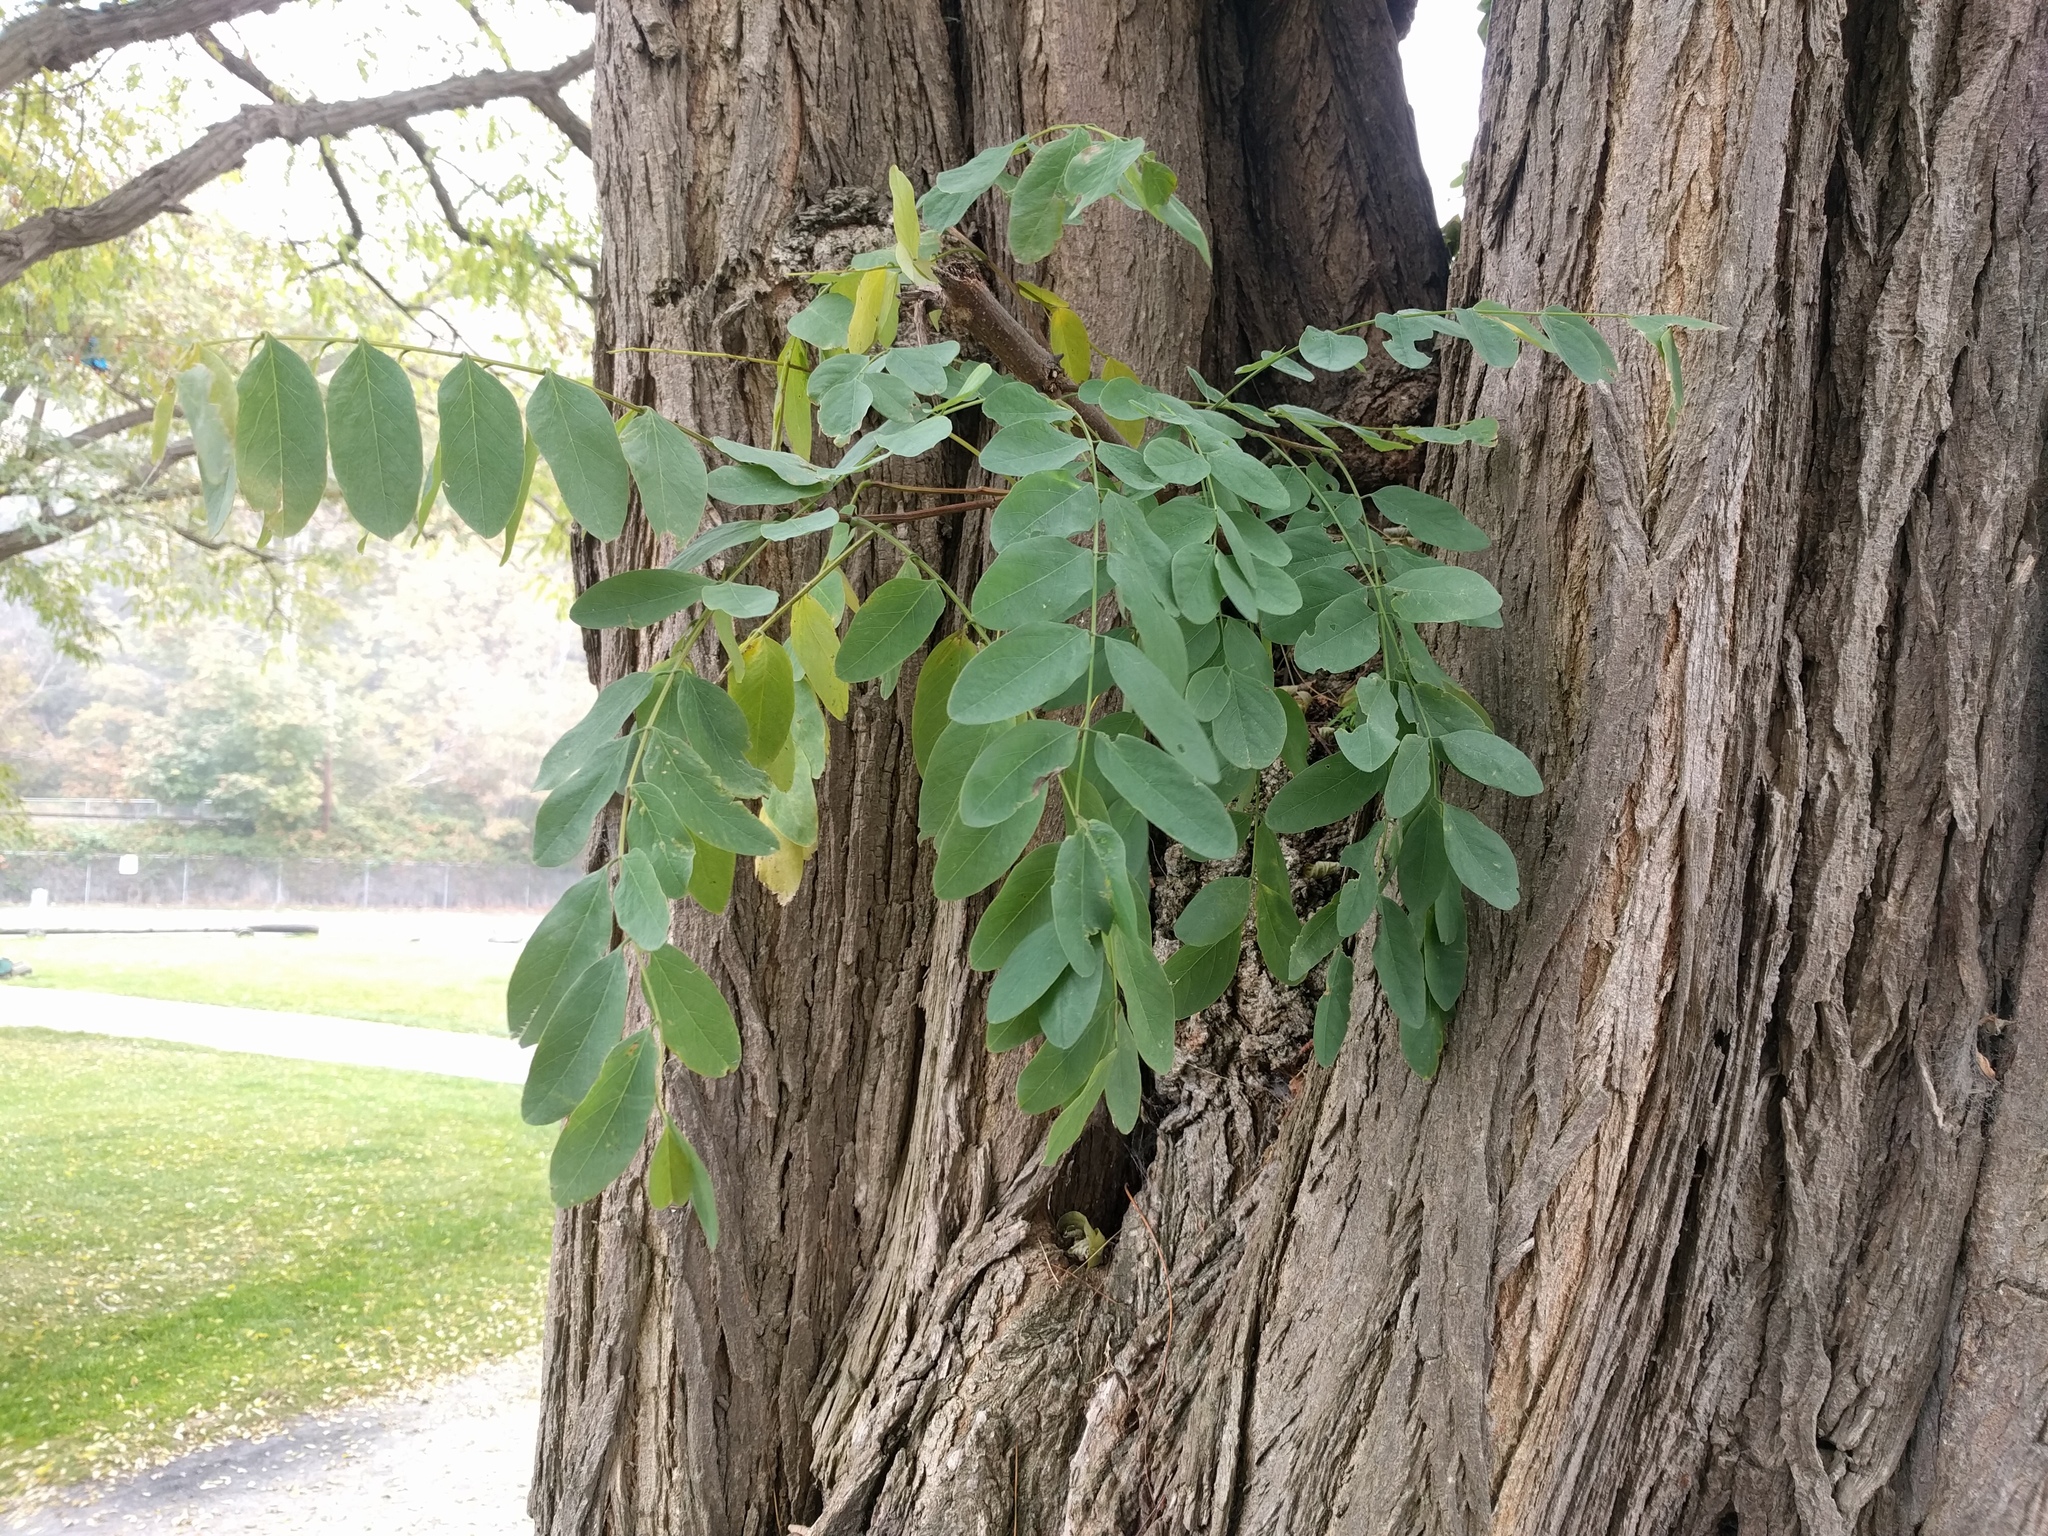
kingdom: Plantae
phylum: Tracheophyta
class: Magnoliopsida
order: Fabales
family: Fabaceae
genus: Robinia
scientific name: Robinia pseudoacacia
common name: Black locust
